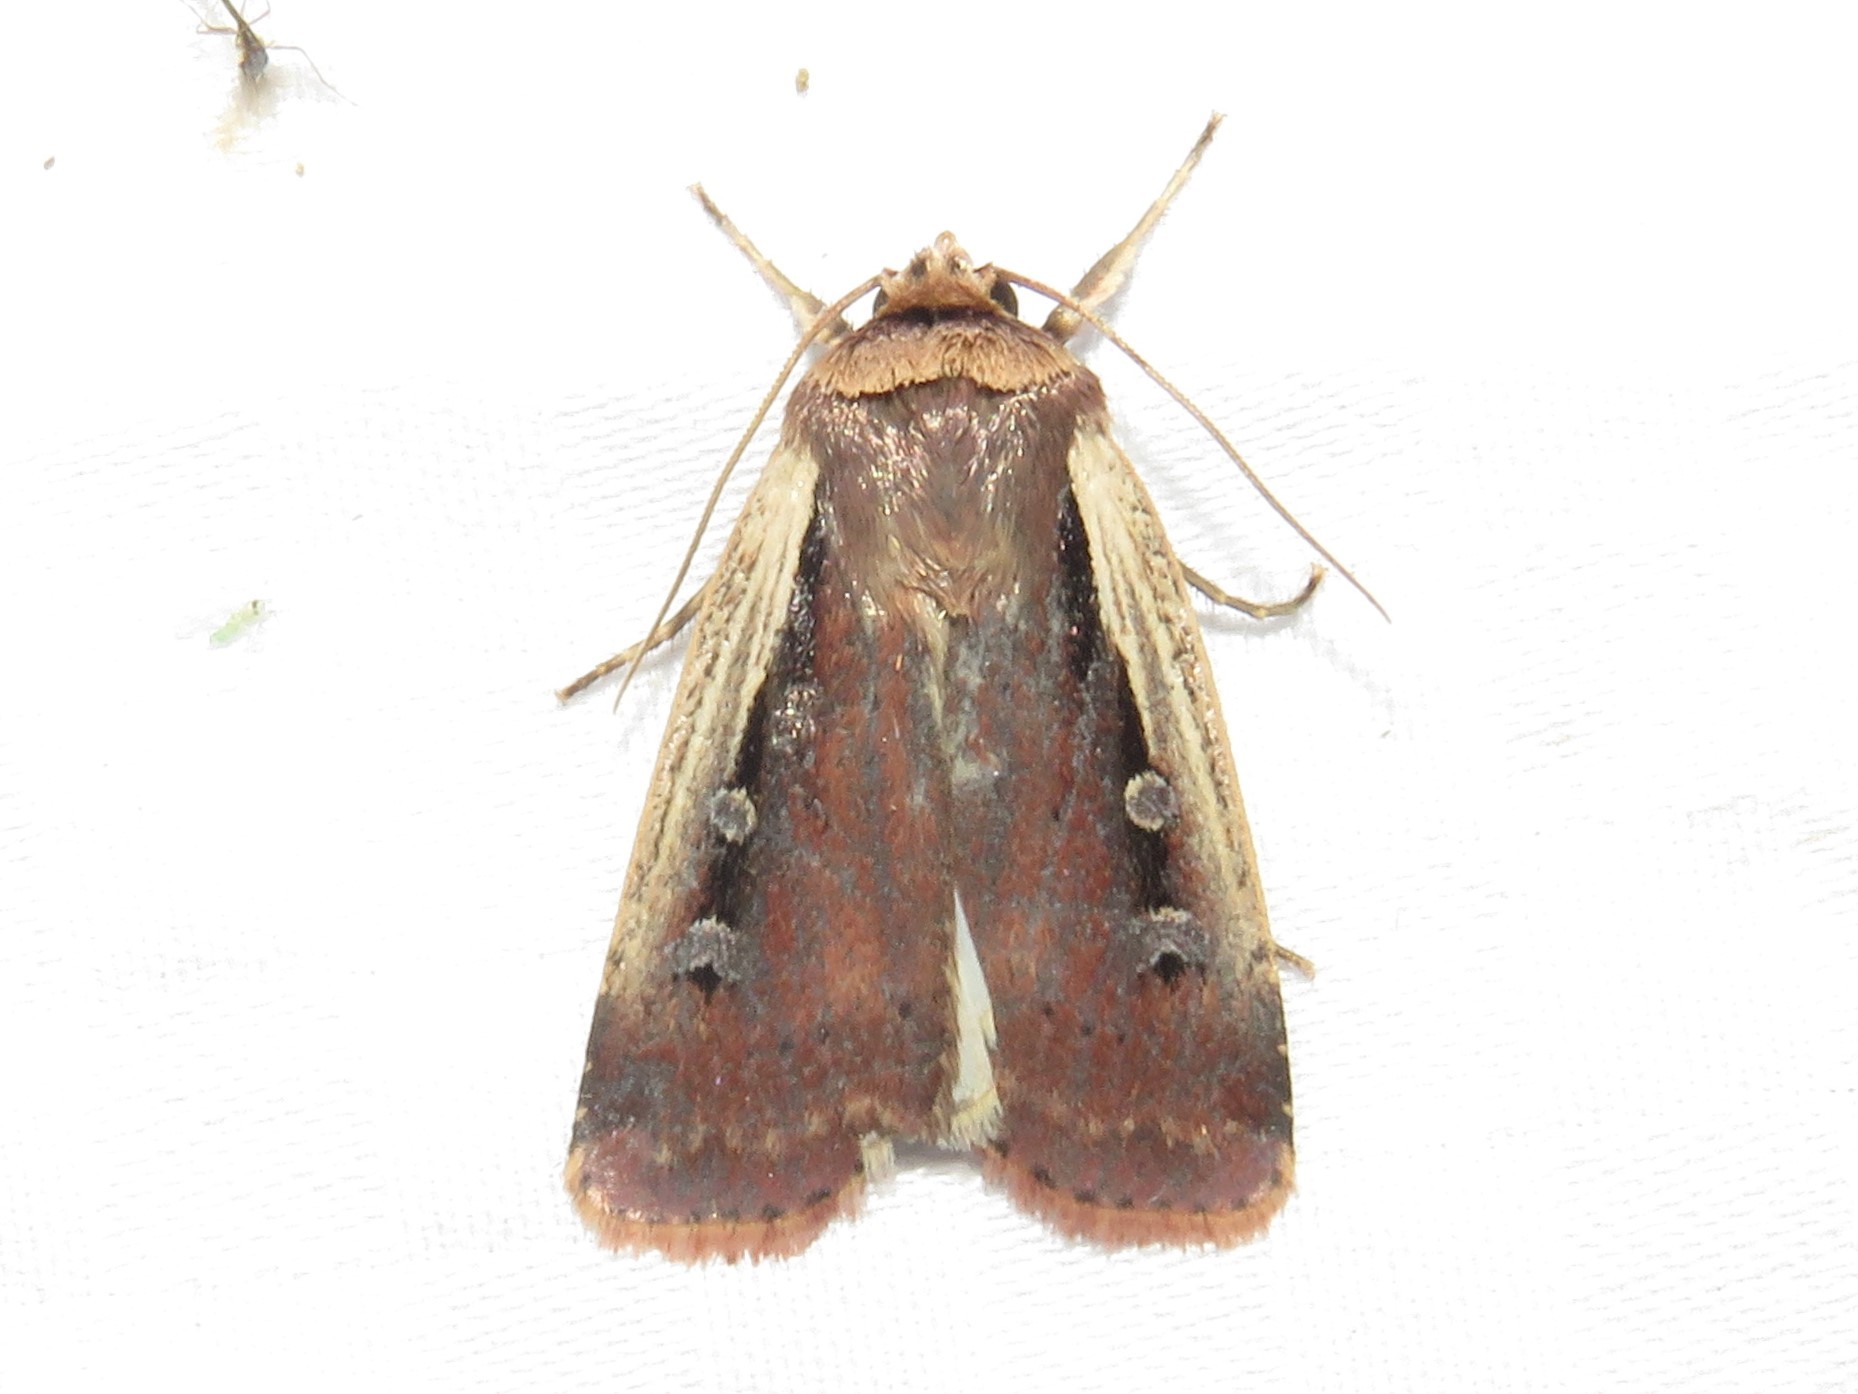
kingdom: Animalia
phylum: Arthropoda
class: Insecta
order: Lepidoptera
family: Noctuidae
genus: Ochropleura
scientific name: Ochropleura implecta
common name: Flame-shouldered dart
